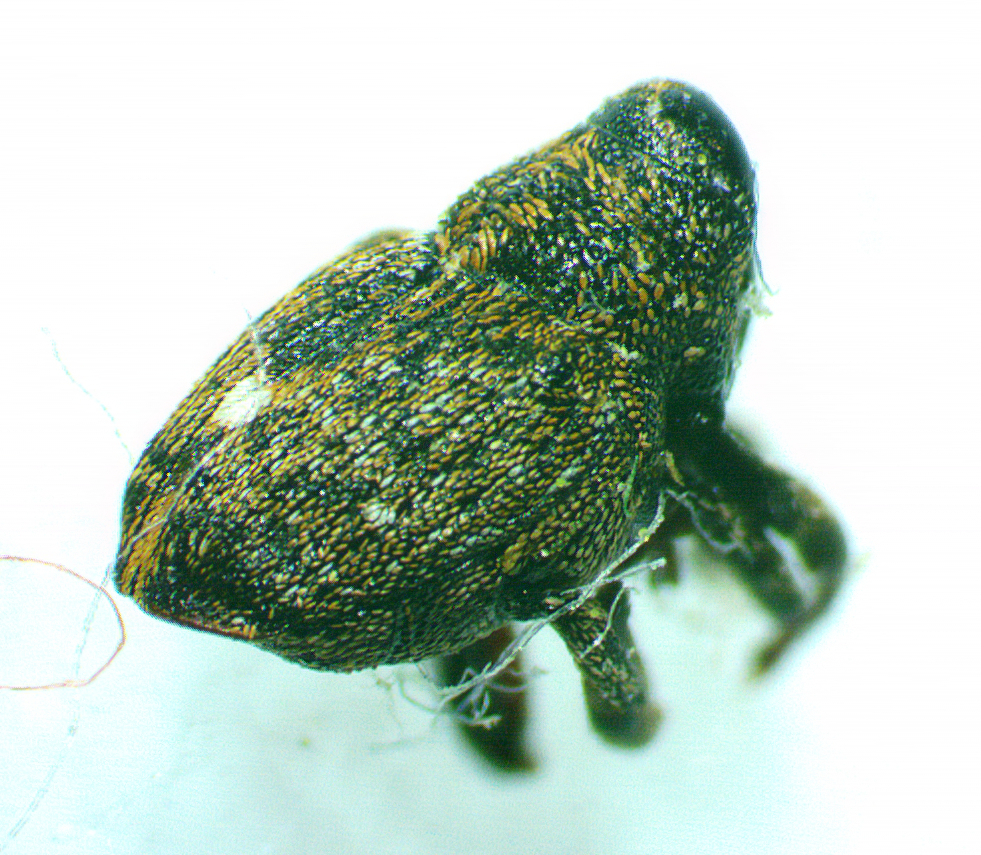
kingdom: Animalia
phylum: Arthropoda
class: Insecta
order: Coleoptera
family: Curculionidae
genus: Lechriops
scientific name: Lechriops oculatus
